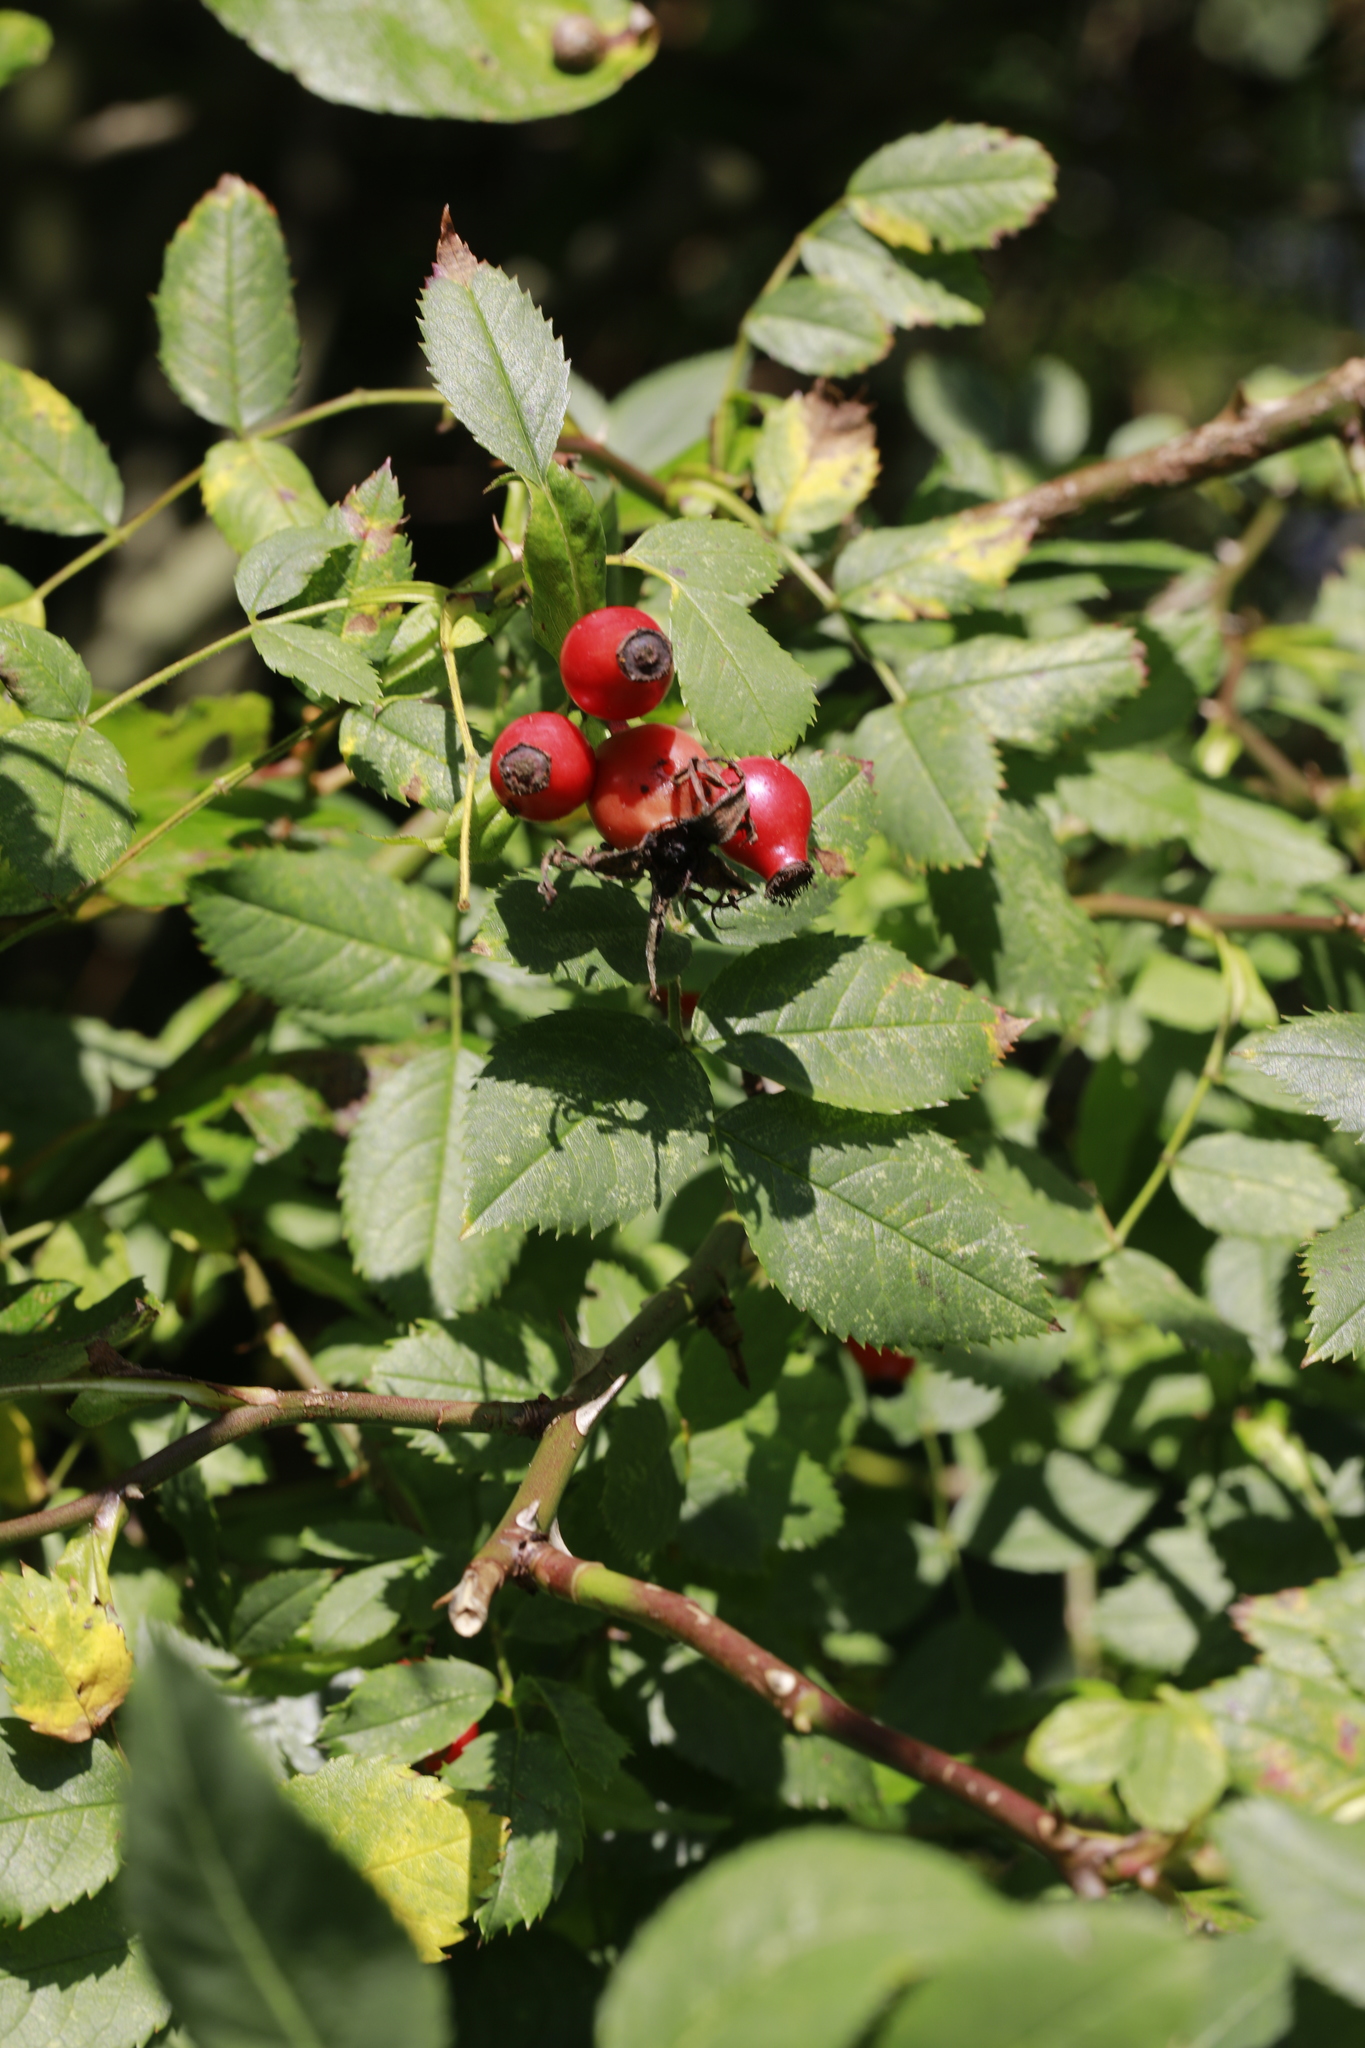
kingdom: Plantae
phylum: Tracheophyta
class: Magnoliopsida
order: Rosales
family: Rosaceae
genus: Rosa
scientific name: Rosa canina
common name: Dog rose
